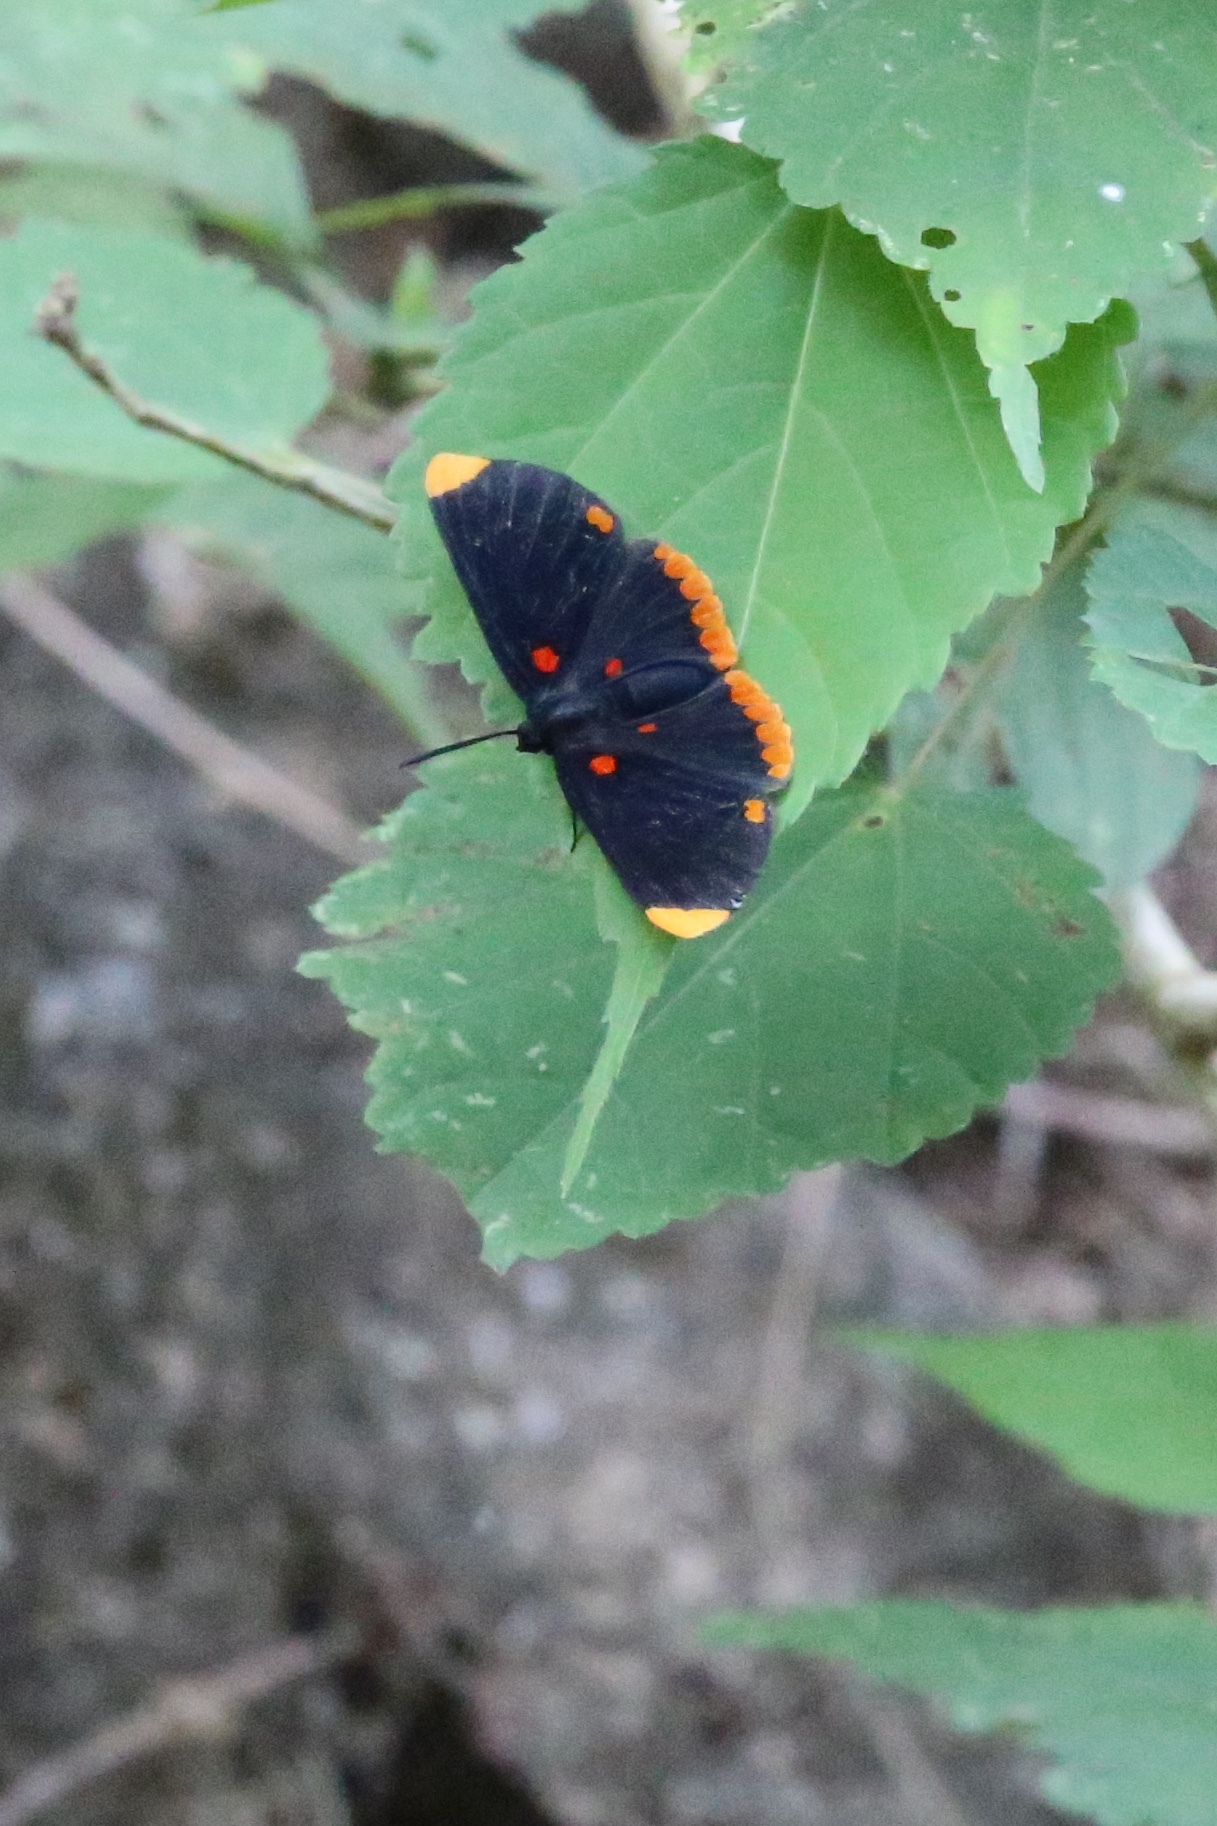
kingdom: Animalia
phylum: Arthropoda
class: Insecta
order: Lepidoptera
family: Lycaenidae
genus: Melanis
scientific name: Melanis pixe
